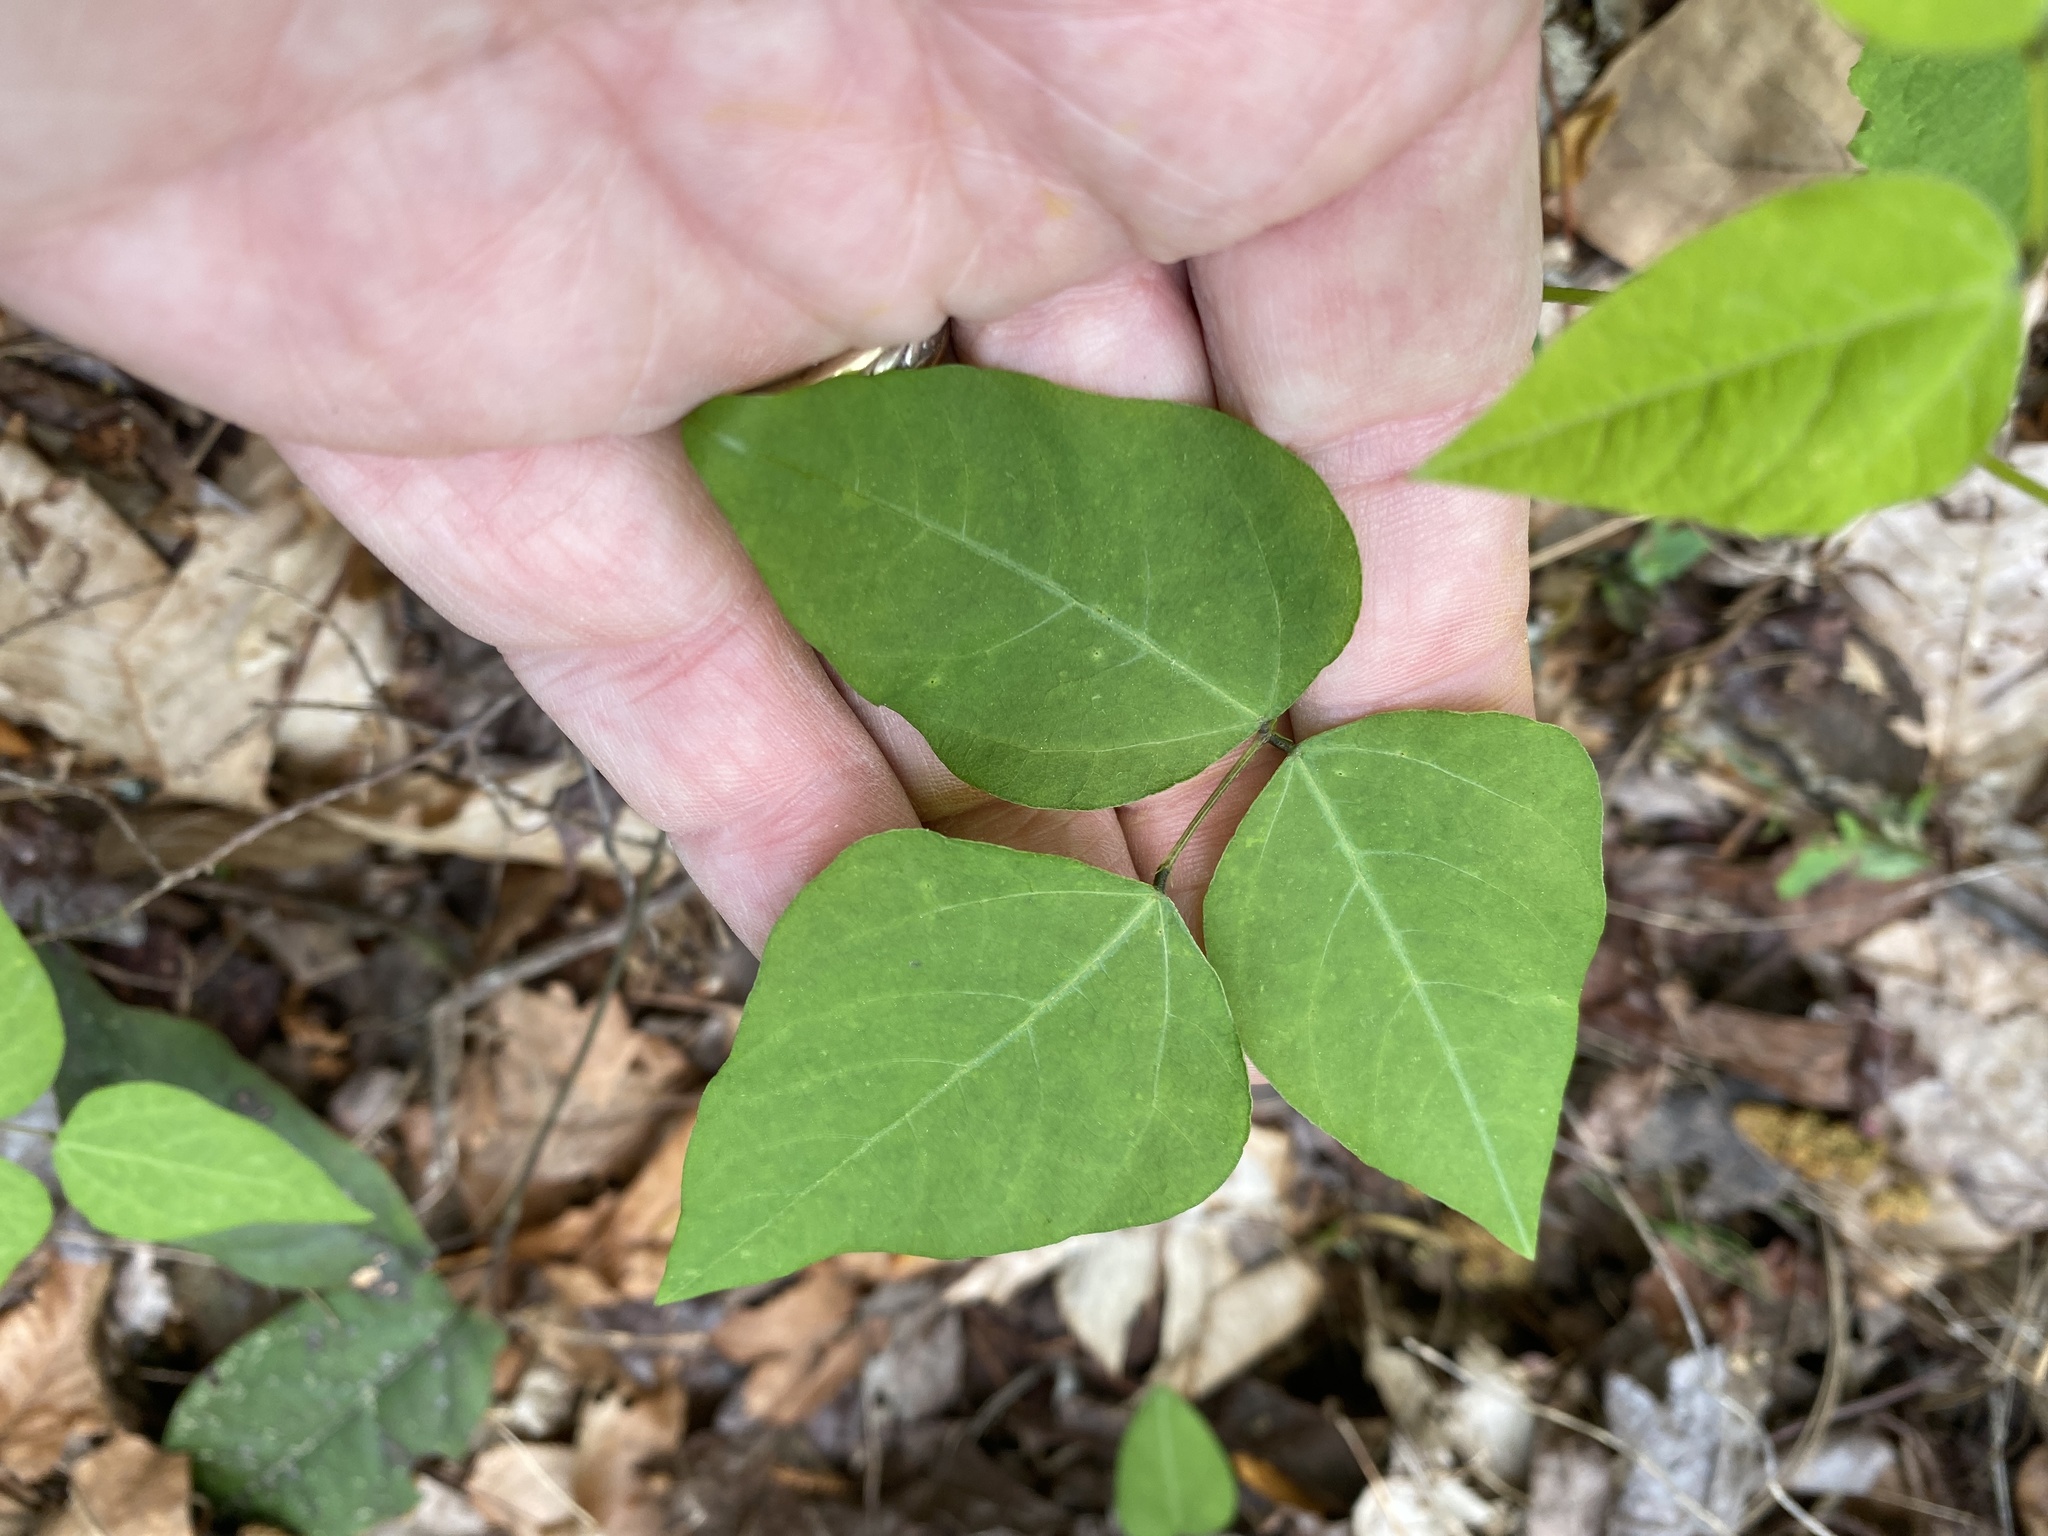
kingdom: Plantae
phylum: Tracheophyta
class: Magnoliopsida
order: Fabales
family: Fabaceae
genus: Amphicarpaea
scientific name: Amphicarpaea bracteata
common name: American hog peanut
